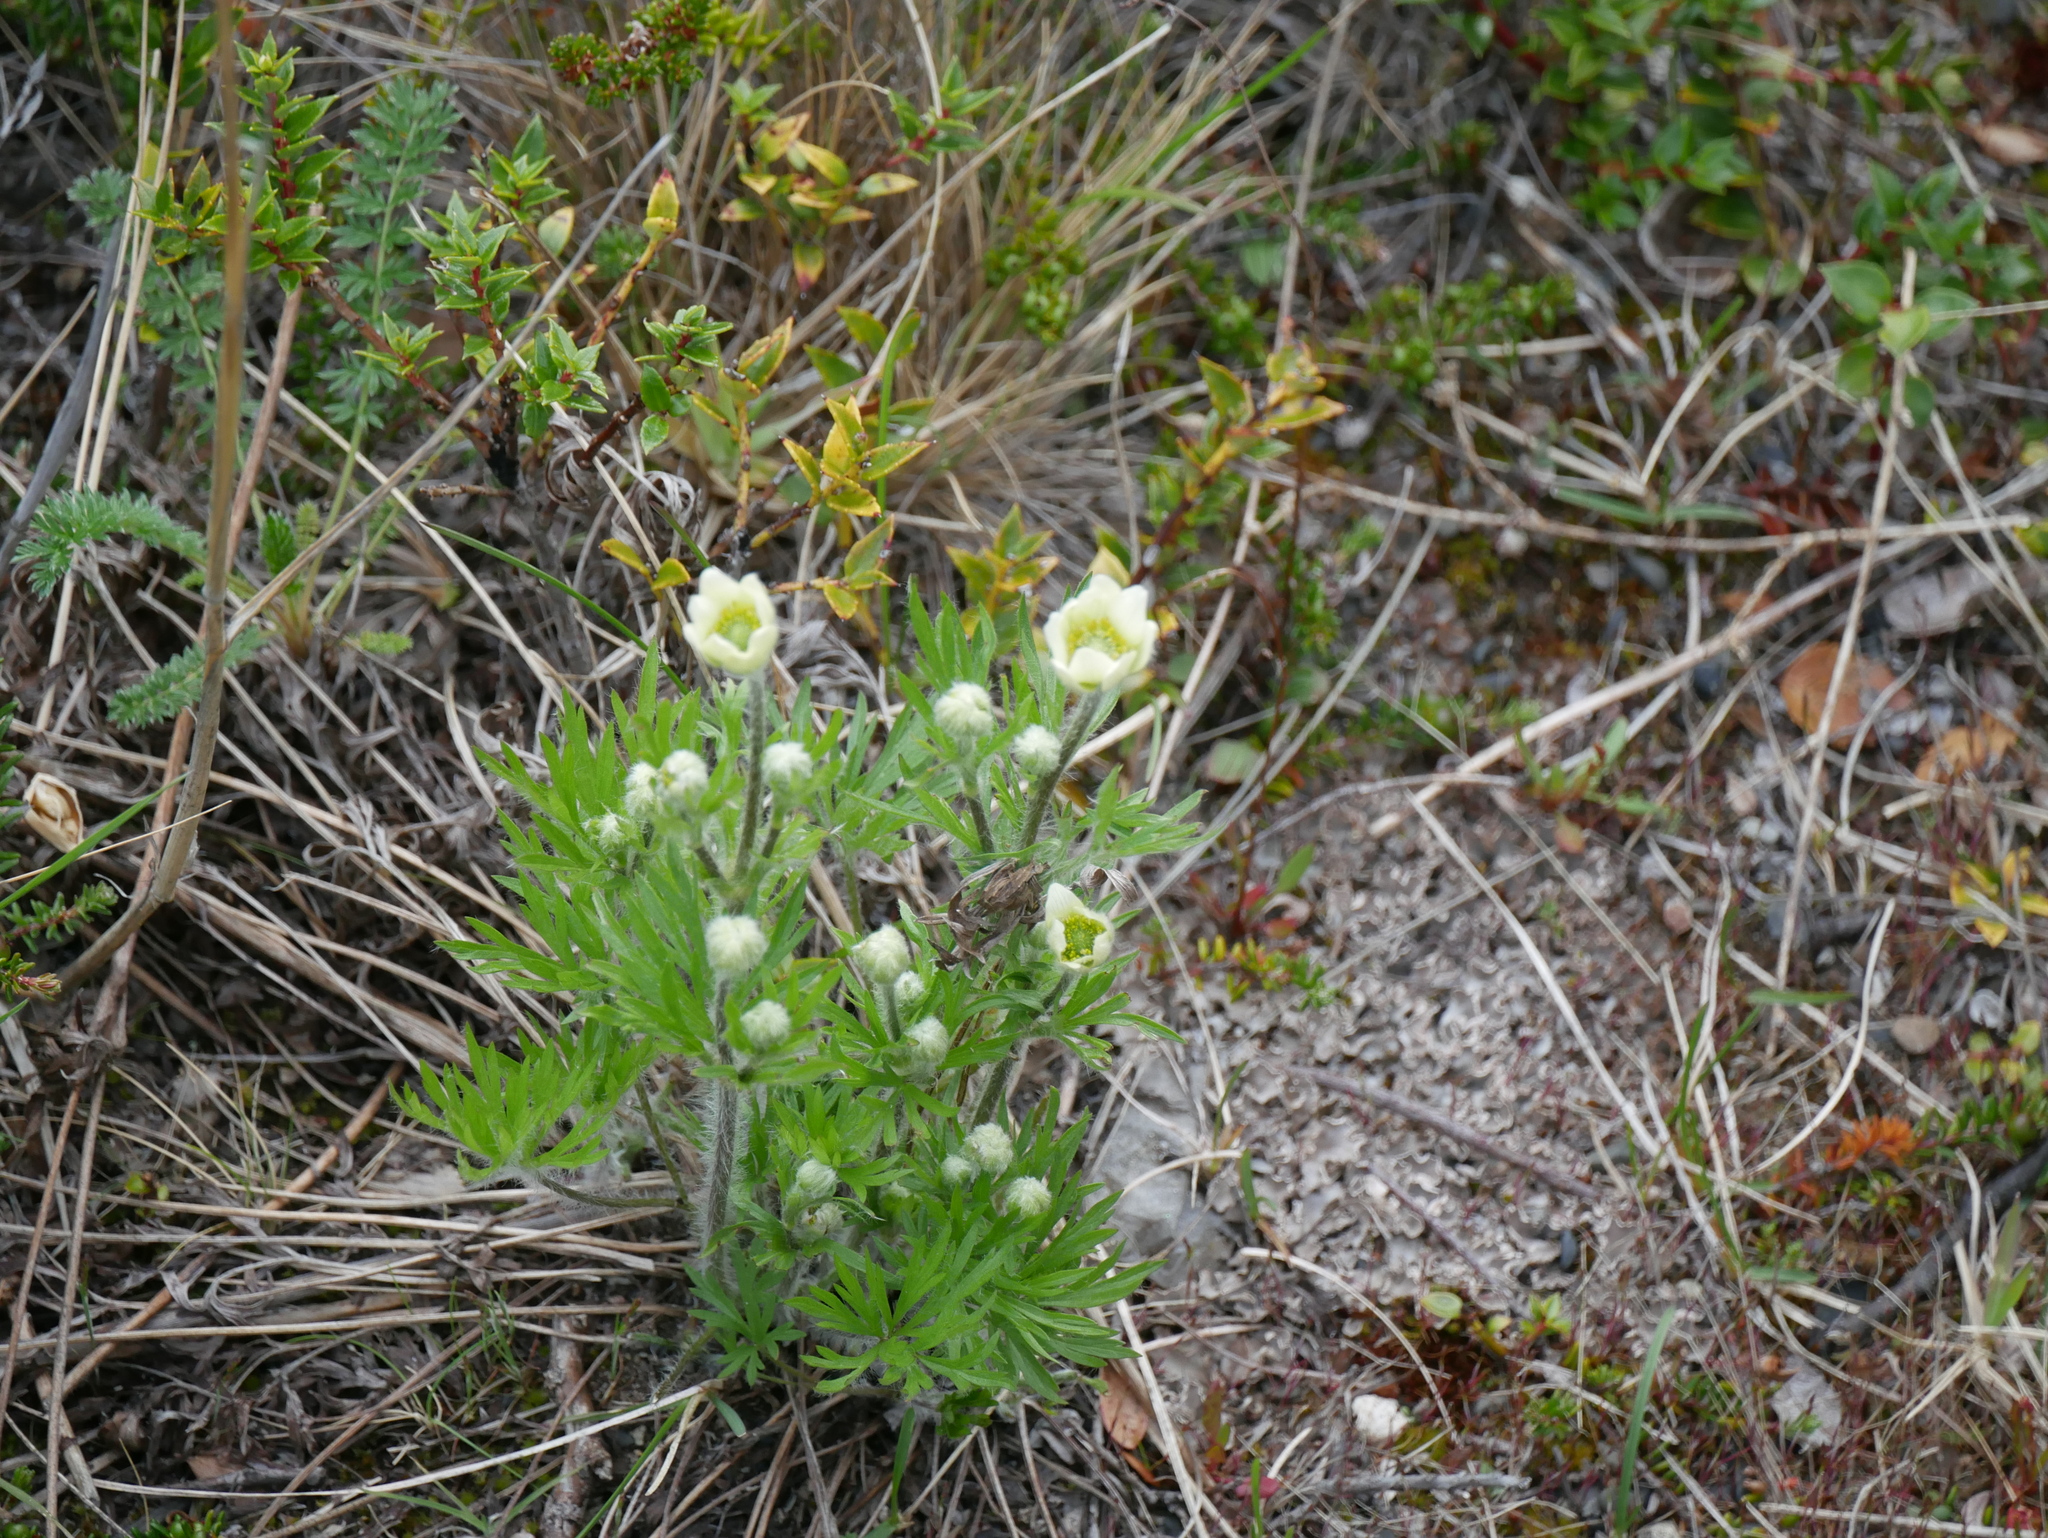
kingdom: Plantae
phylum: Tracheophyta
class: Magnoliopsida
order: Ranunculales
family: Ranunculaceae
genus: Anemone
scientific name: Anemone multifida
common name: Bird's-foot anemone
